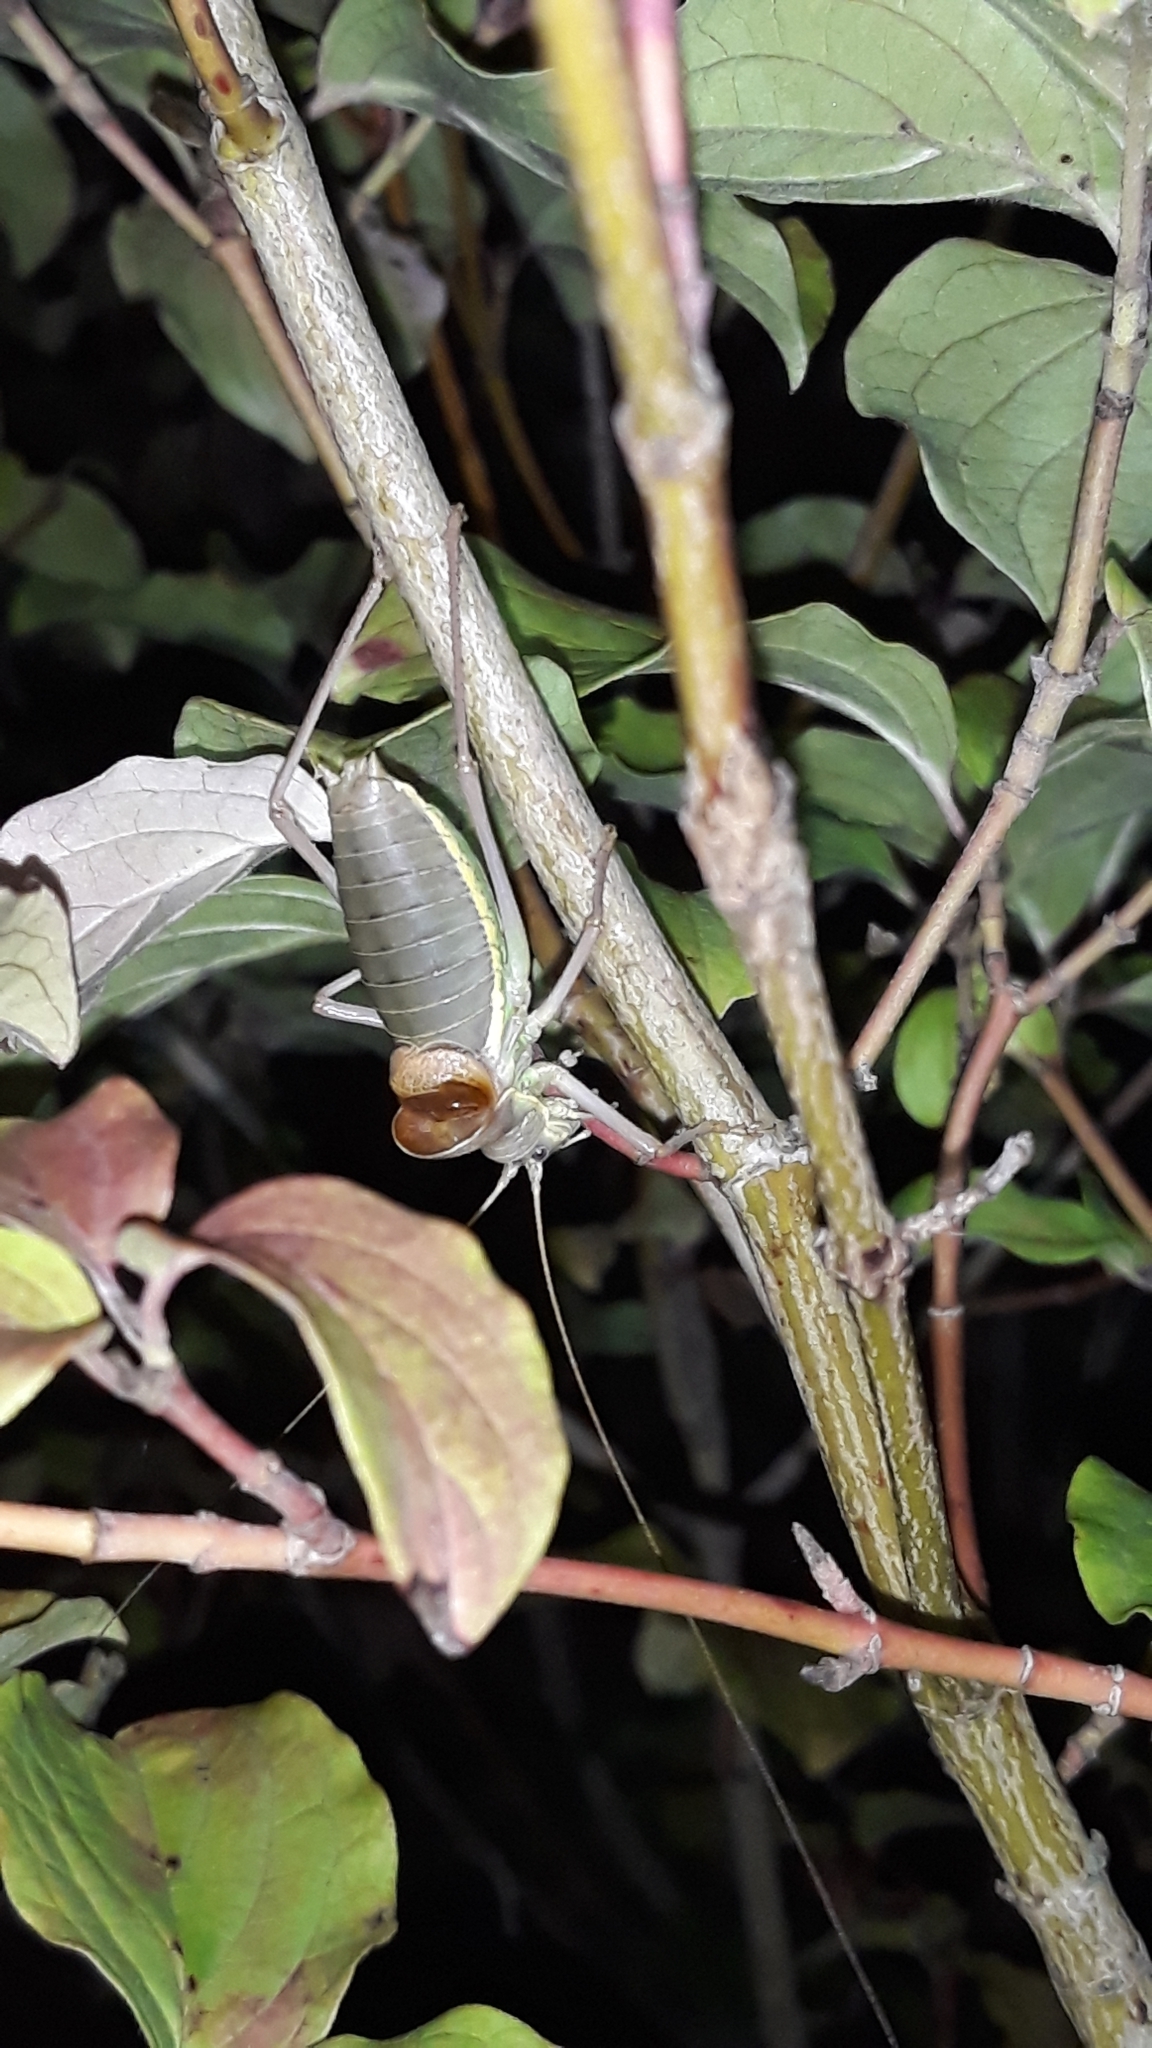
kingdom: Animalia
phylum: Arthropoda
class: Insecta
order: Orthoptera
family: Tettigoniidae
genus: Ephippiger
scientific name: Ephippiger ephippiger
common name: Eastern saddle bush-cricket
